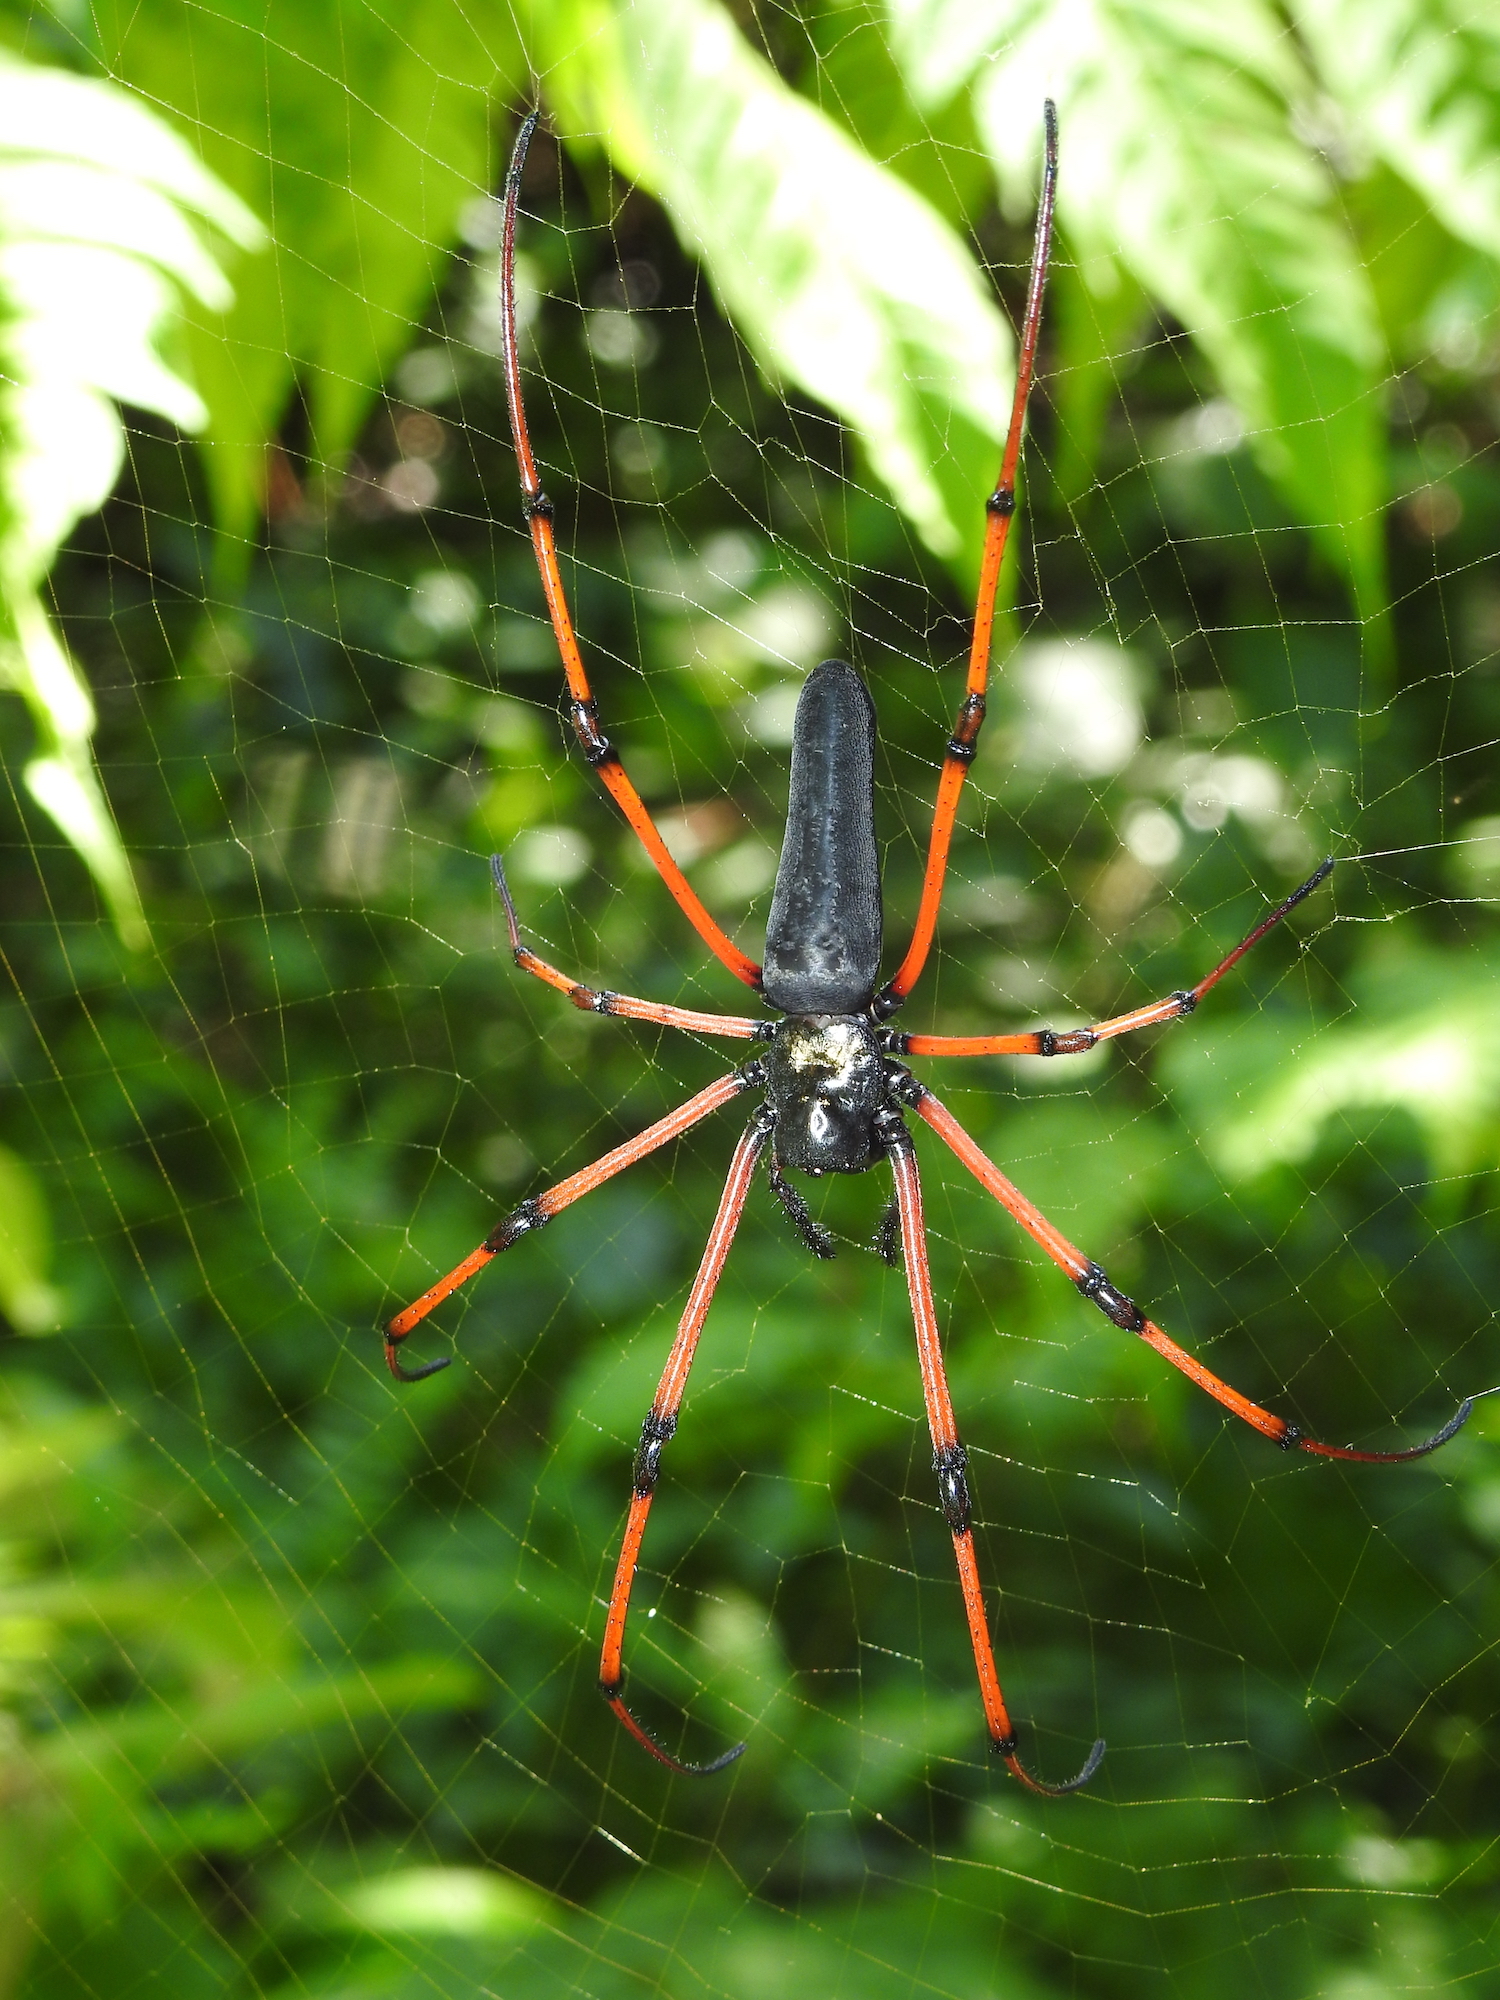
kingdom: Animalia
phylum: Arthropoda
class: Arachnida
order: Araneae
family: Araneidae
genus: Nephila
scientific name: Nephila kuhli
